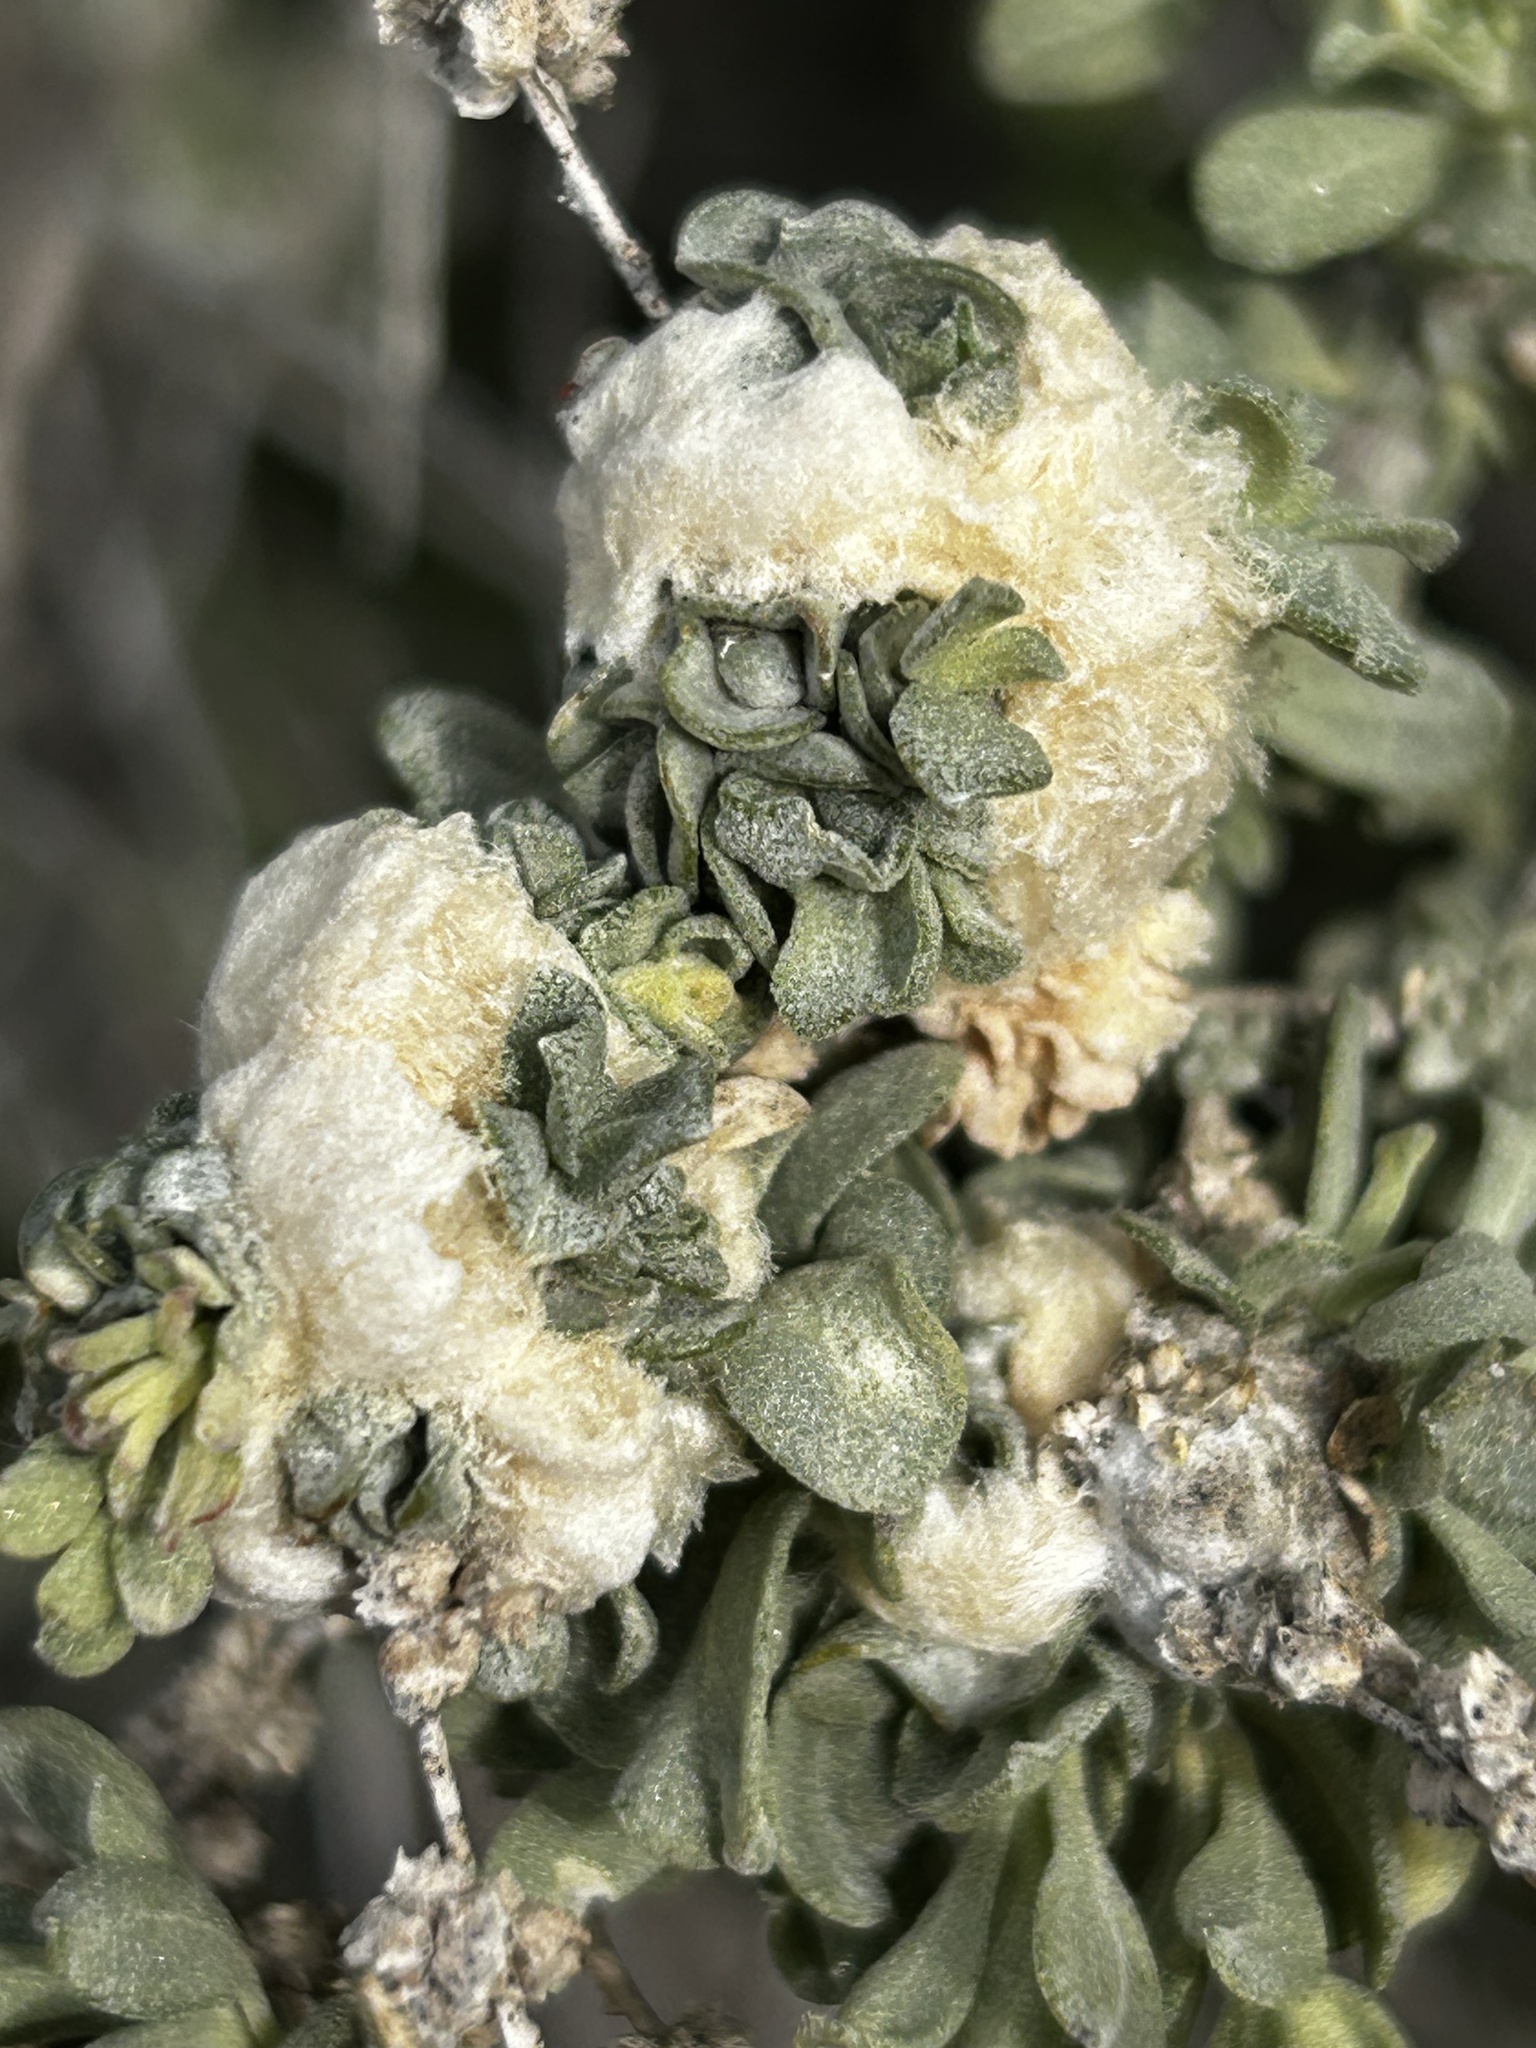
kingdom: Animalia
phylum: Arthropoda
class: Insecta
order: Diptera
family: Cecidomyiidae
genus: Asphondylia
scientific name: Asphondylia floccosa
